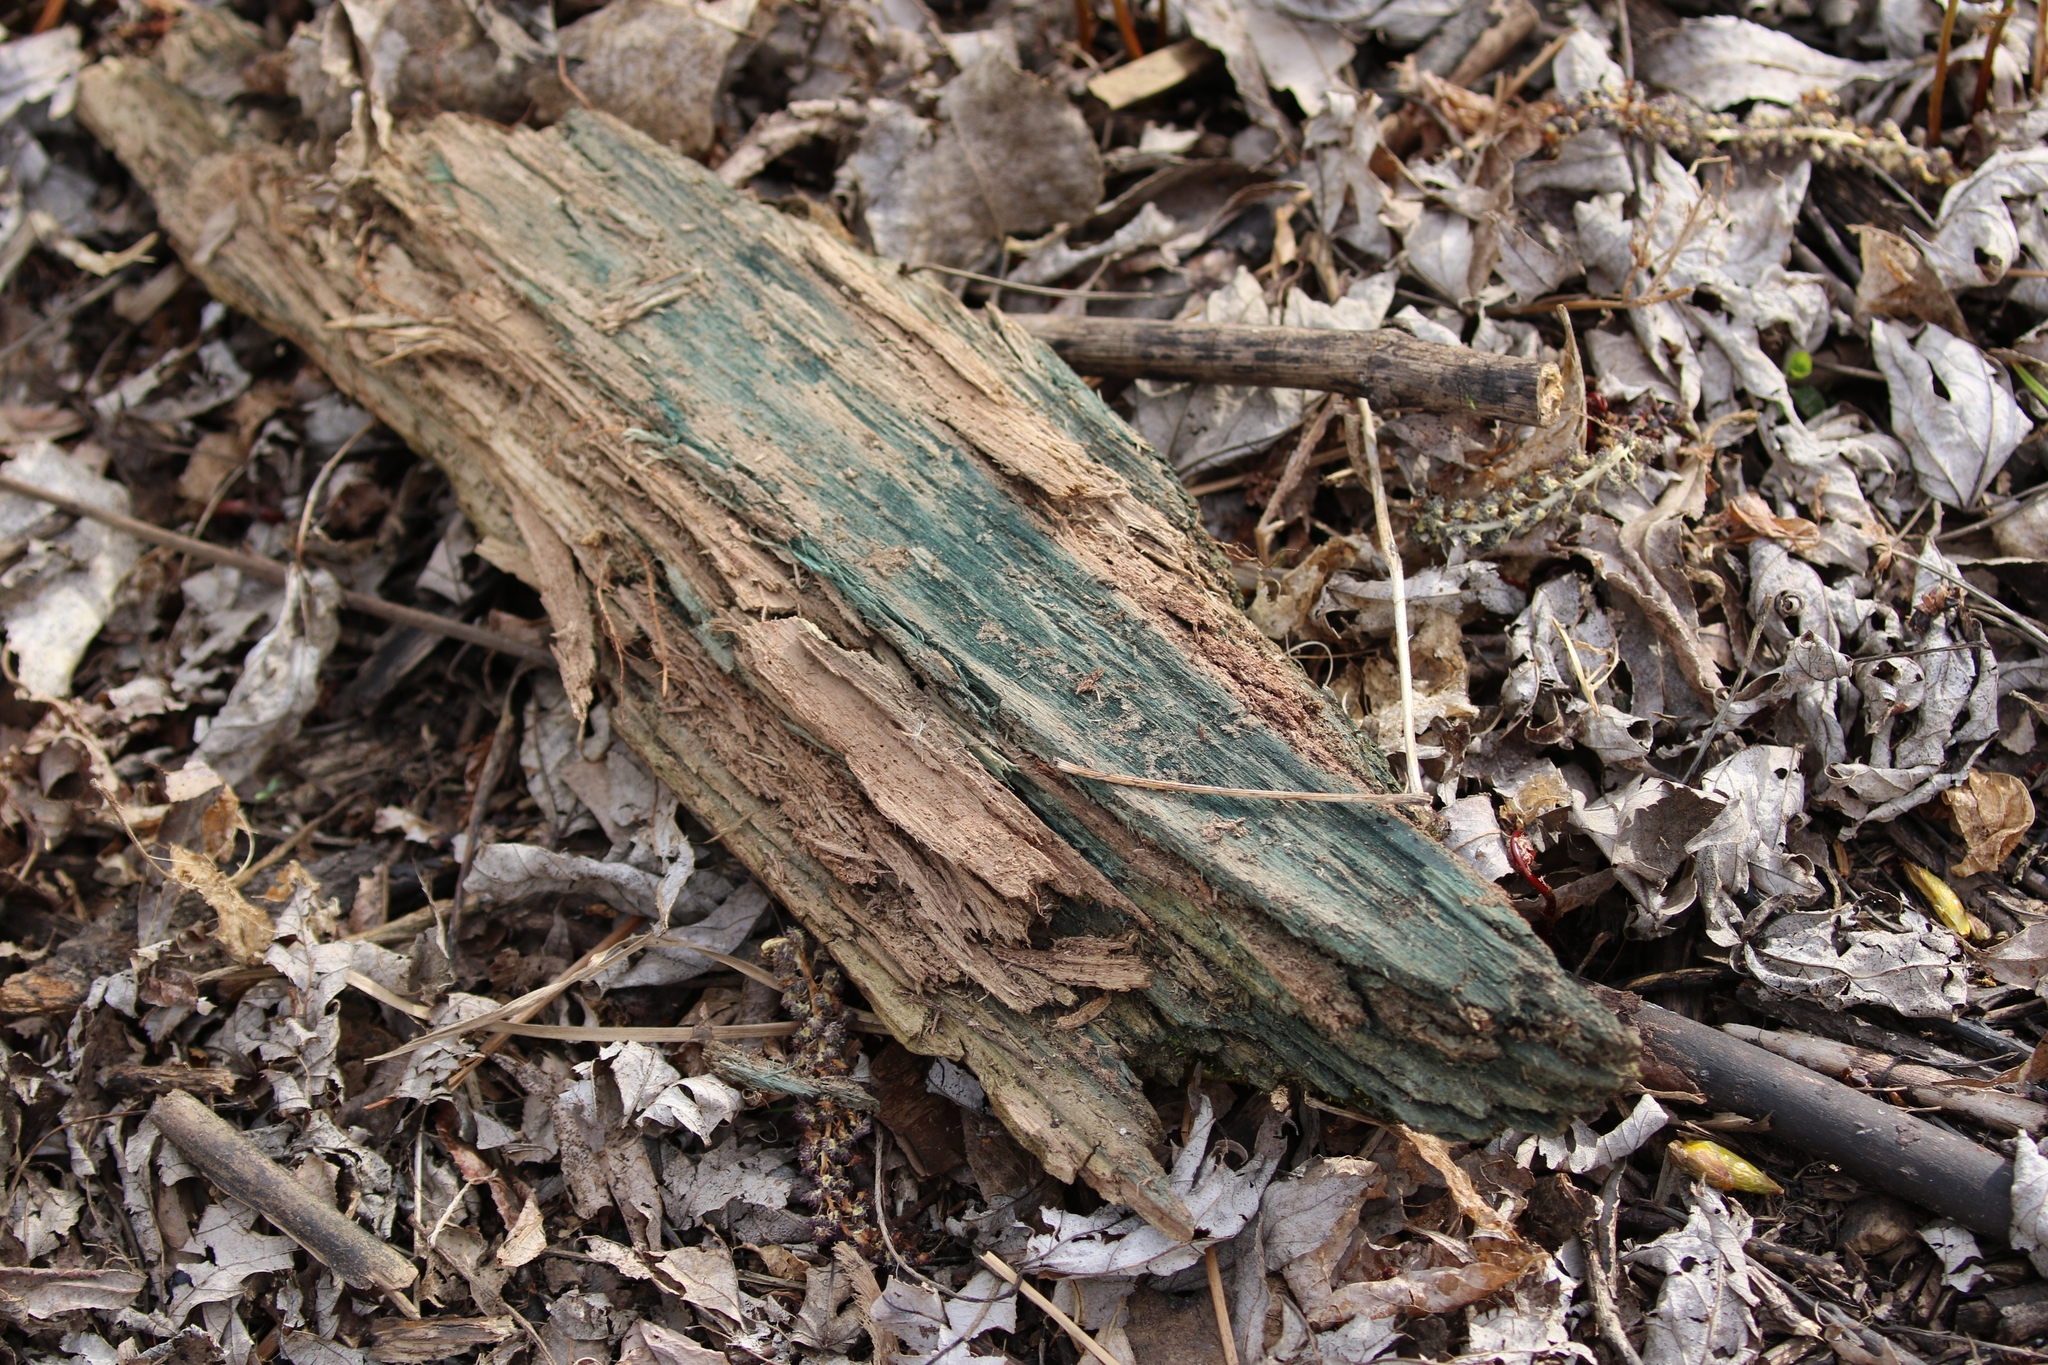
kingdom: Fungi
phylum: Ascomycota
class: Leotiomycetes
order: Helotiales
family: Chlorociboriaceae
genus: Chlorociboria
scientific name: Chlorociboria
